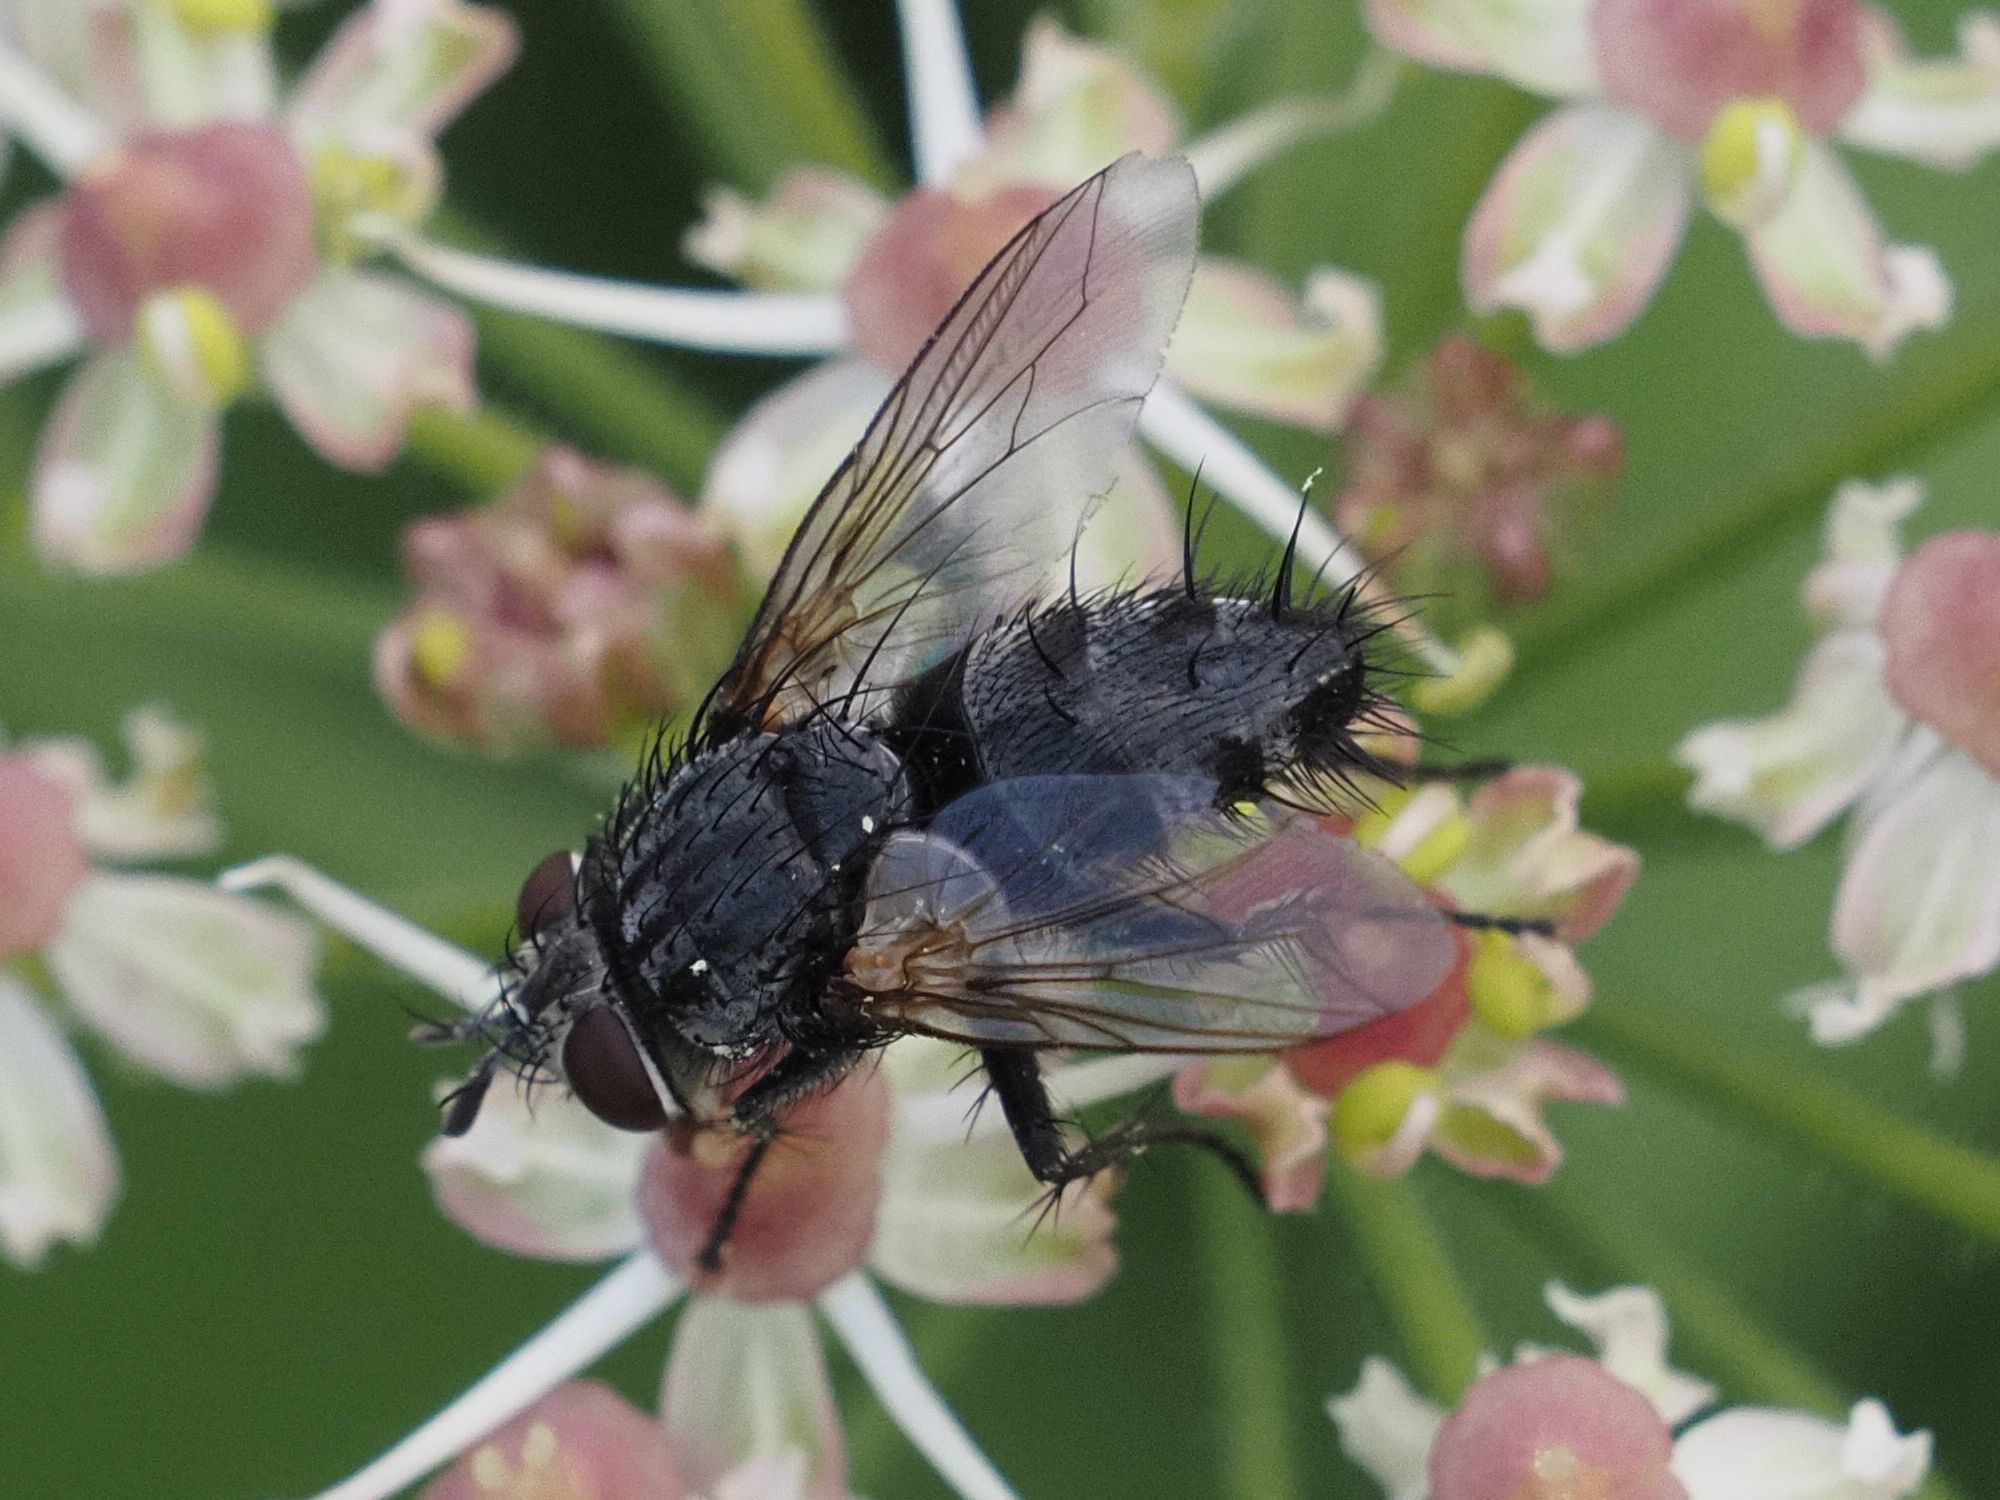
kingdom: Animalia
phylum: Arthropoda
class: Insecta
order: Diptera
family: Tachinidae
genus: Voria
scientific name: Voria ruralis
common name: Parasitic fly
